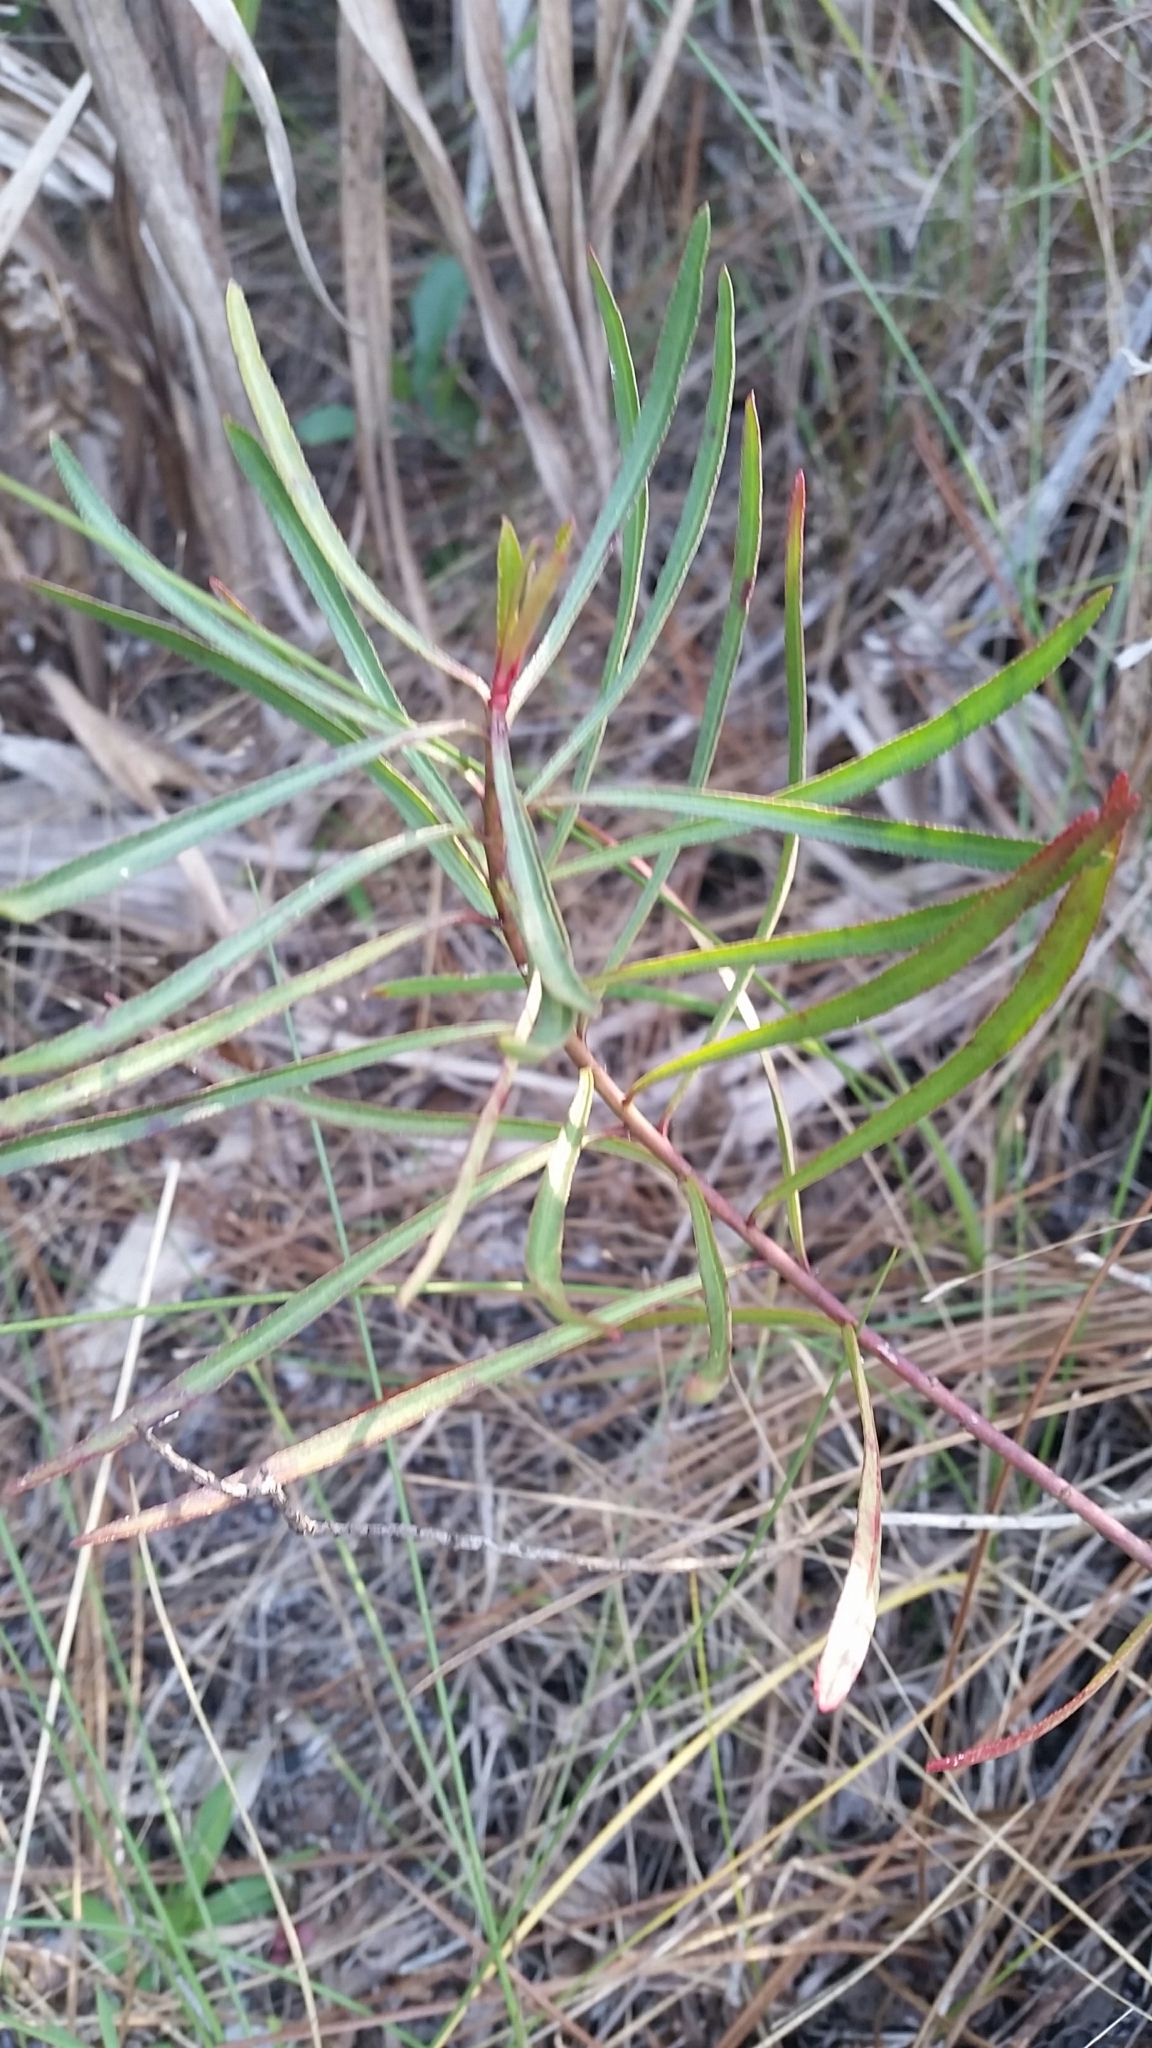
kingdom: Plantae
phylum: Tracheophyta
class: Magnoliopsida
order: Malpighiales
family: Euphorbiaceae
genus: Stillingia
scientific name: Stillingia sylvatica
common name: Queen's-delight
